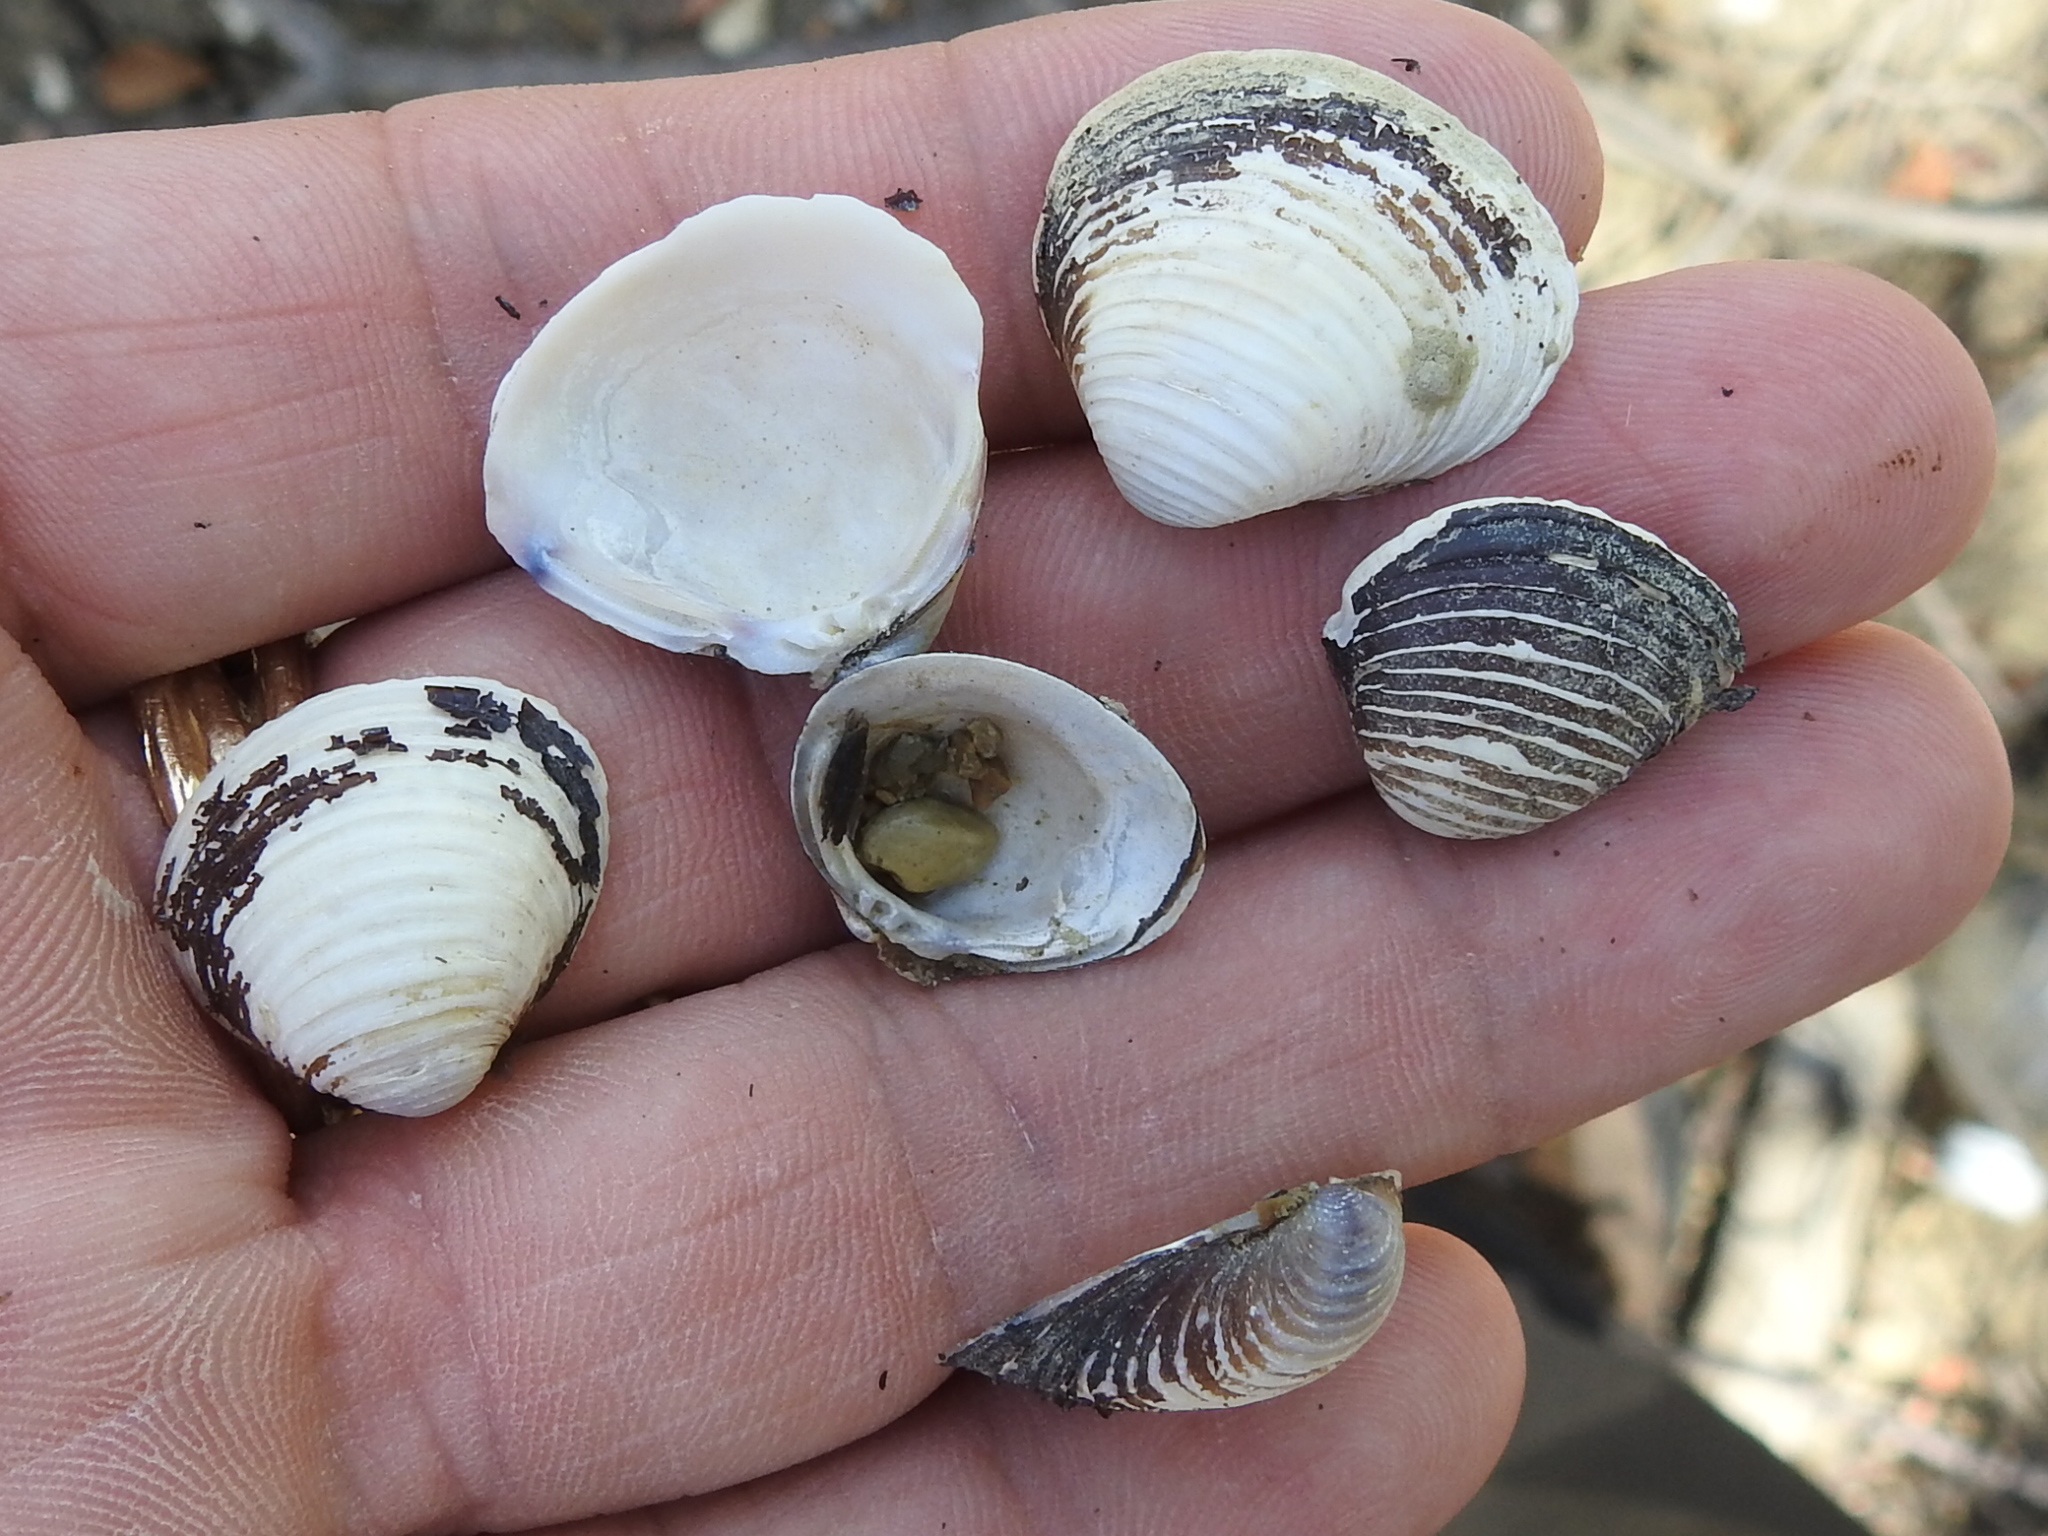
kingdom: Animalia
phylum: Mollusca
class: Bivalvia
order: Venerida
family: Cyrenidae
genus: Corbicula
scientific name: Corbicula fluminea
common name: Asian clam
